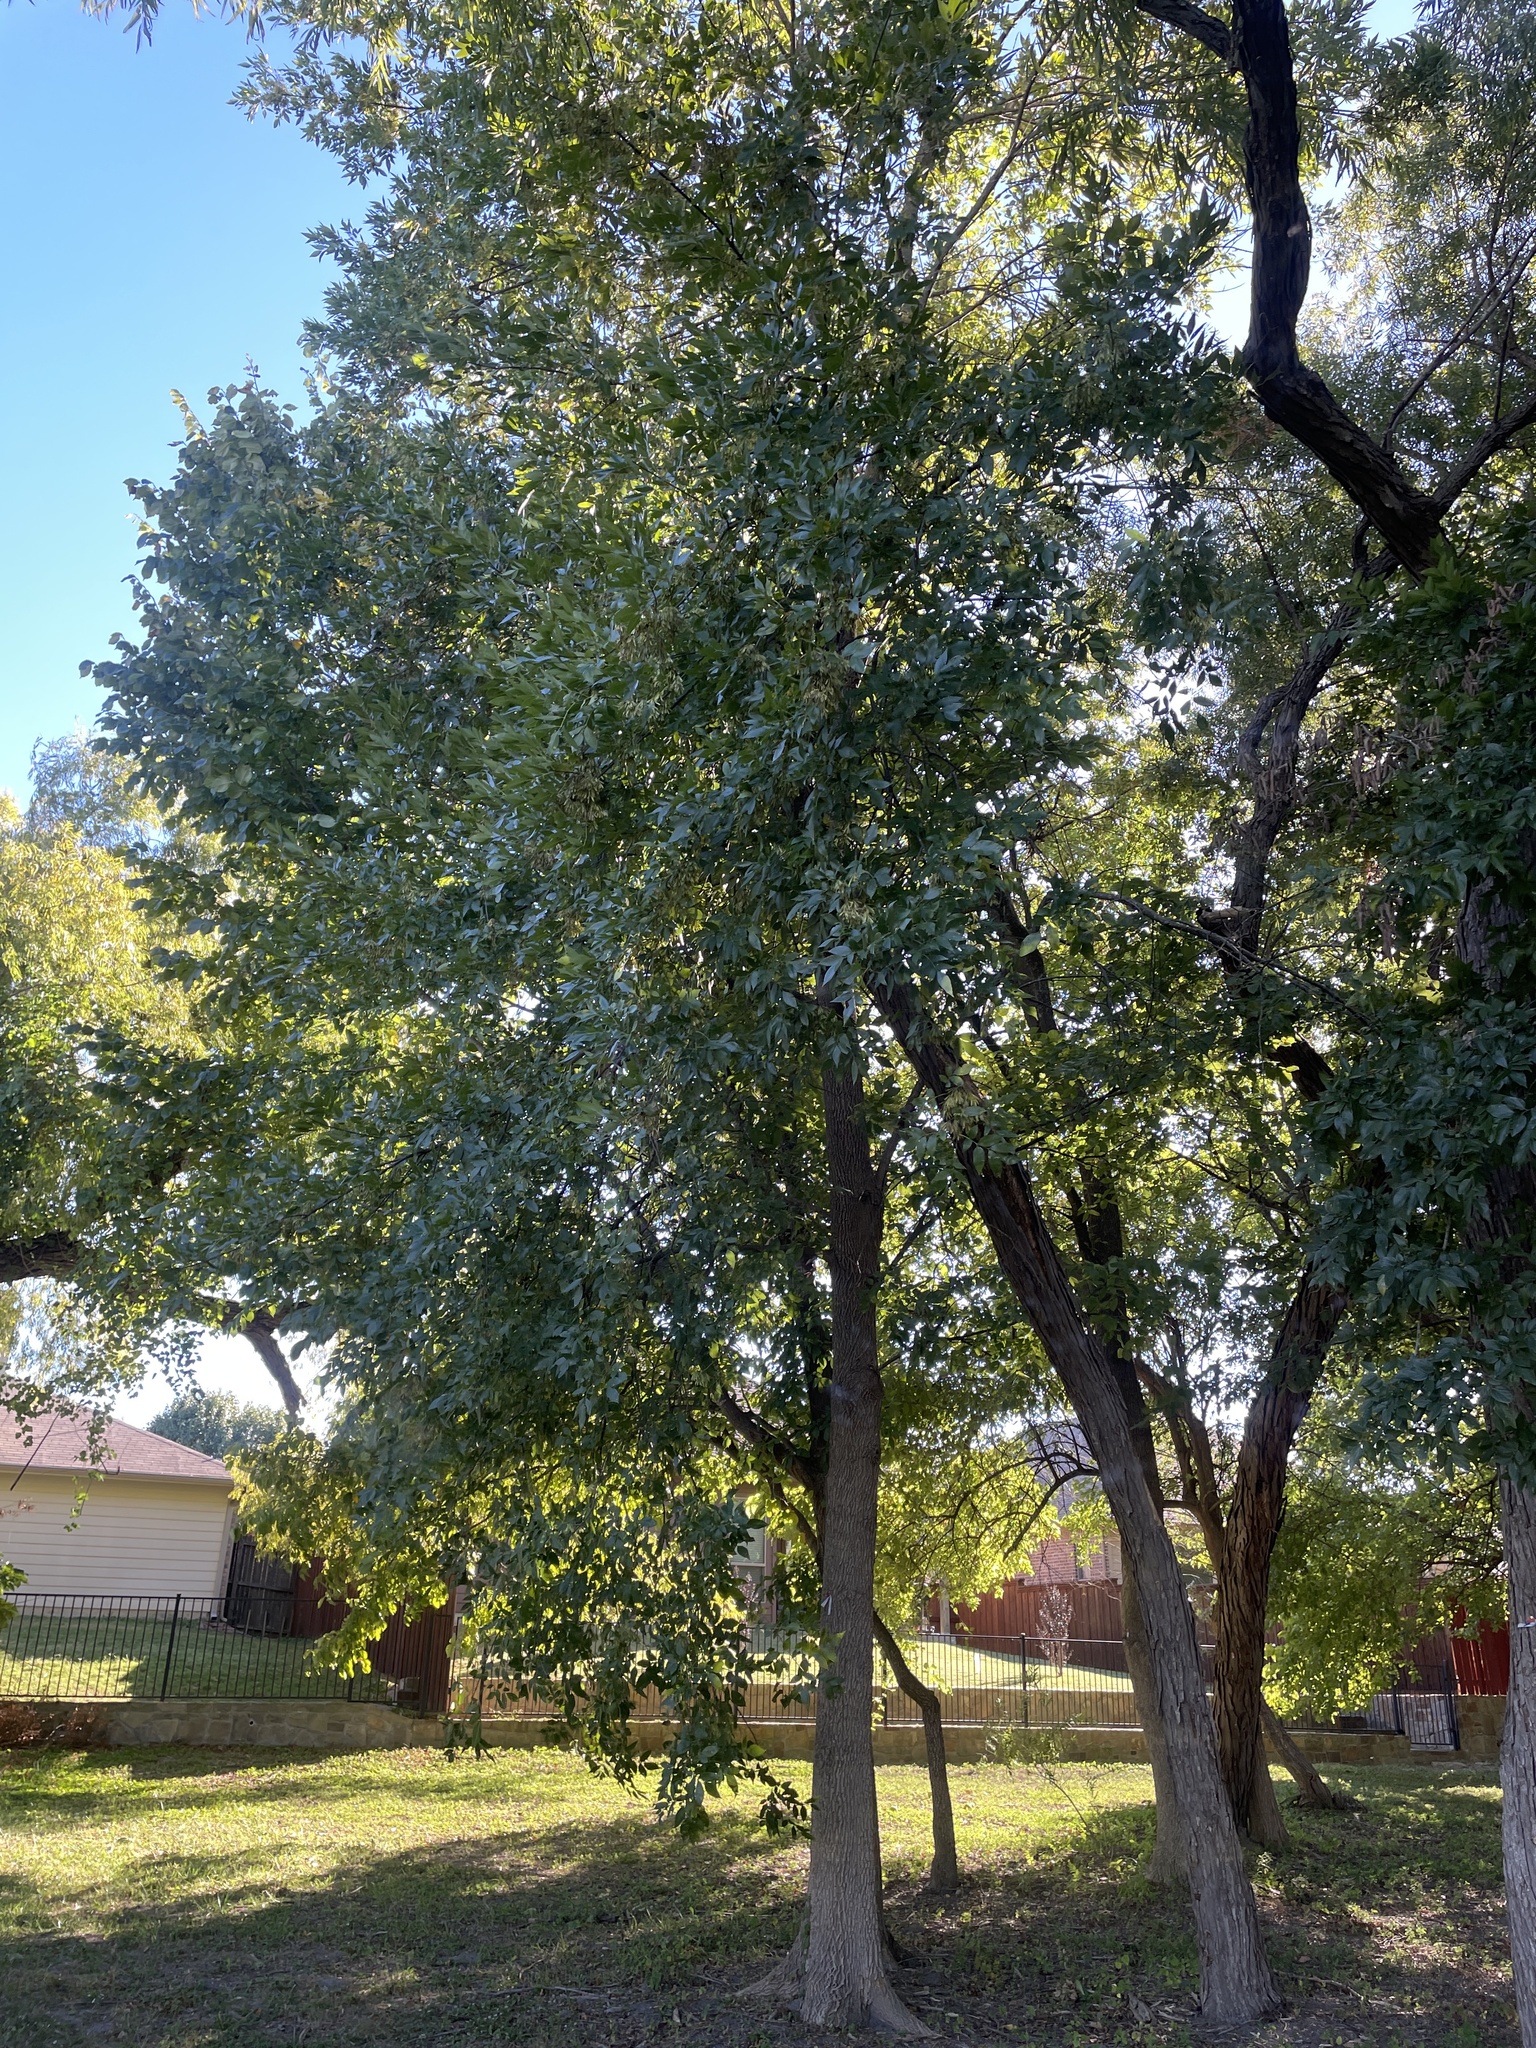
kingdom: Plantae
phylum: Tracheophyta
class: Magnoliopsida
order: Lamiales
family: Oleaceae
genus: Fraxinus
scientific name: Fraxinus pennsylvanica
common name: Green ash
